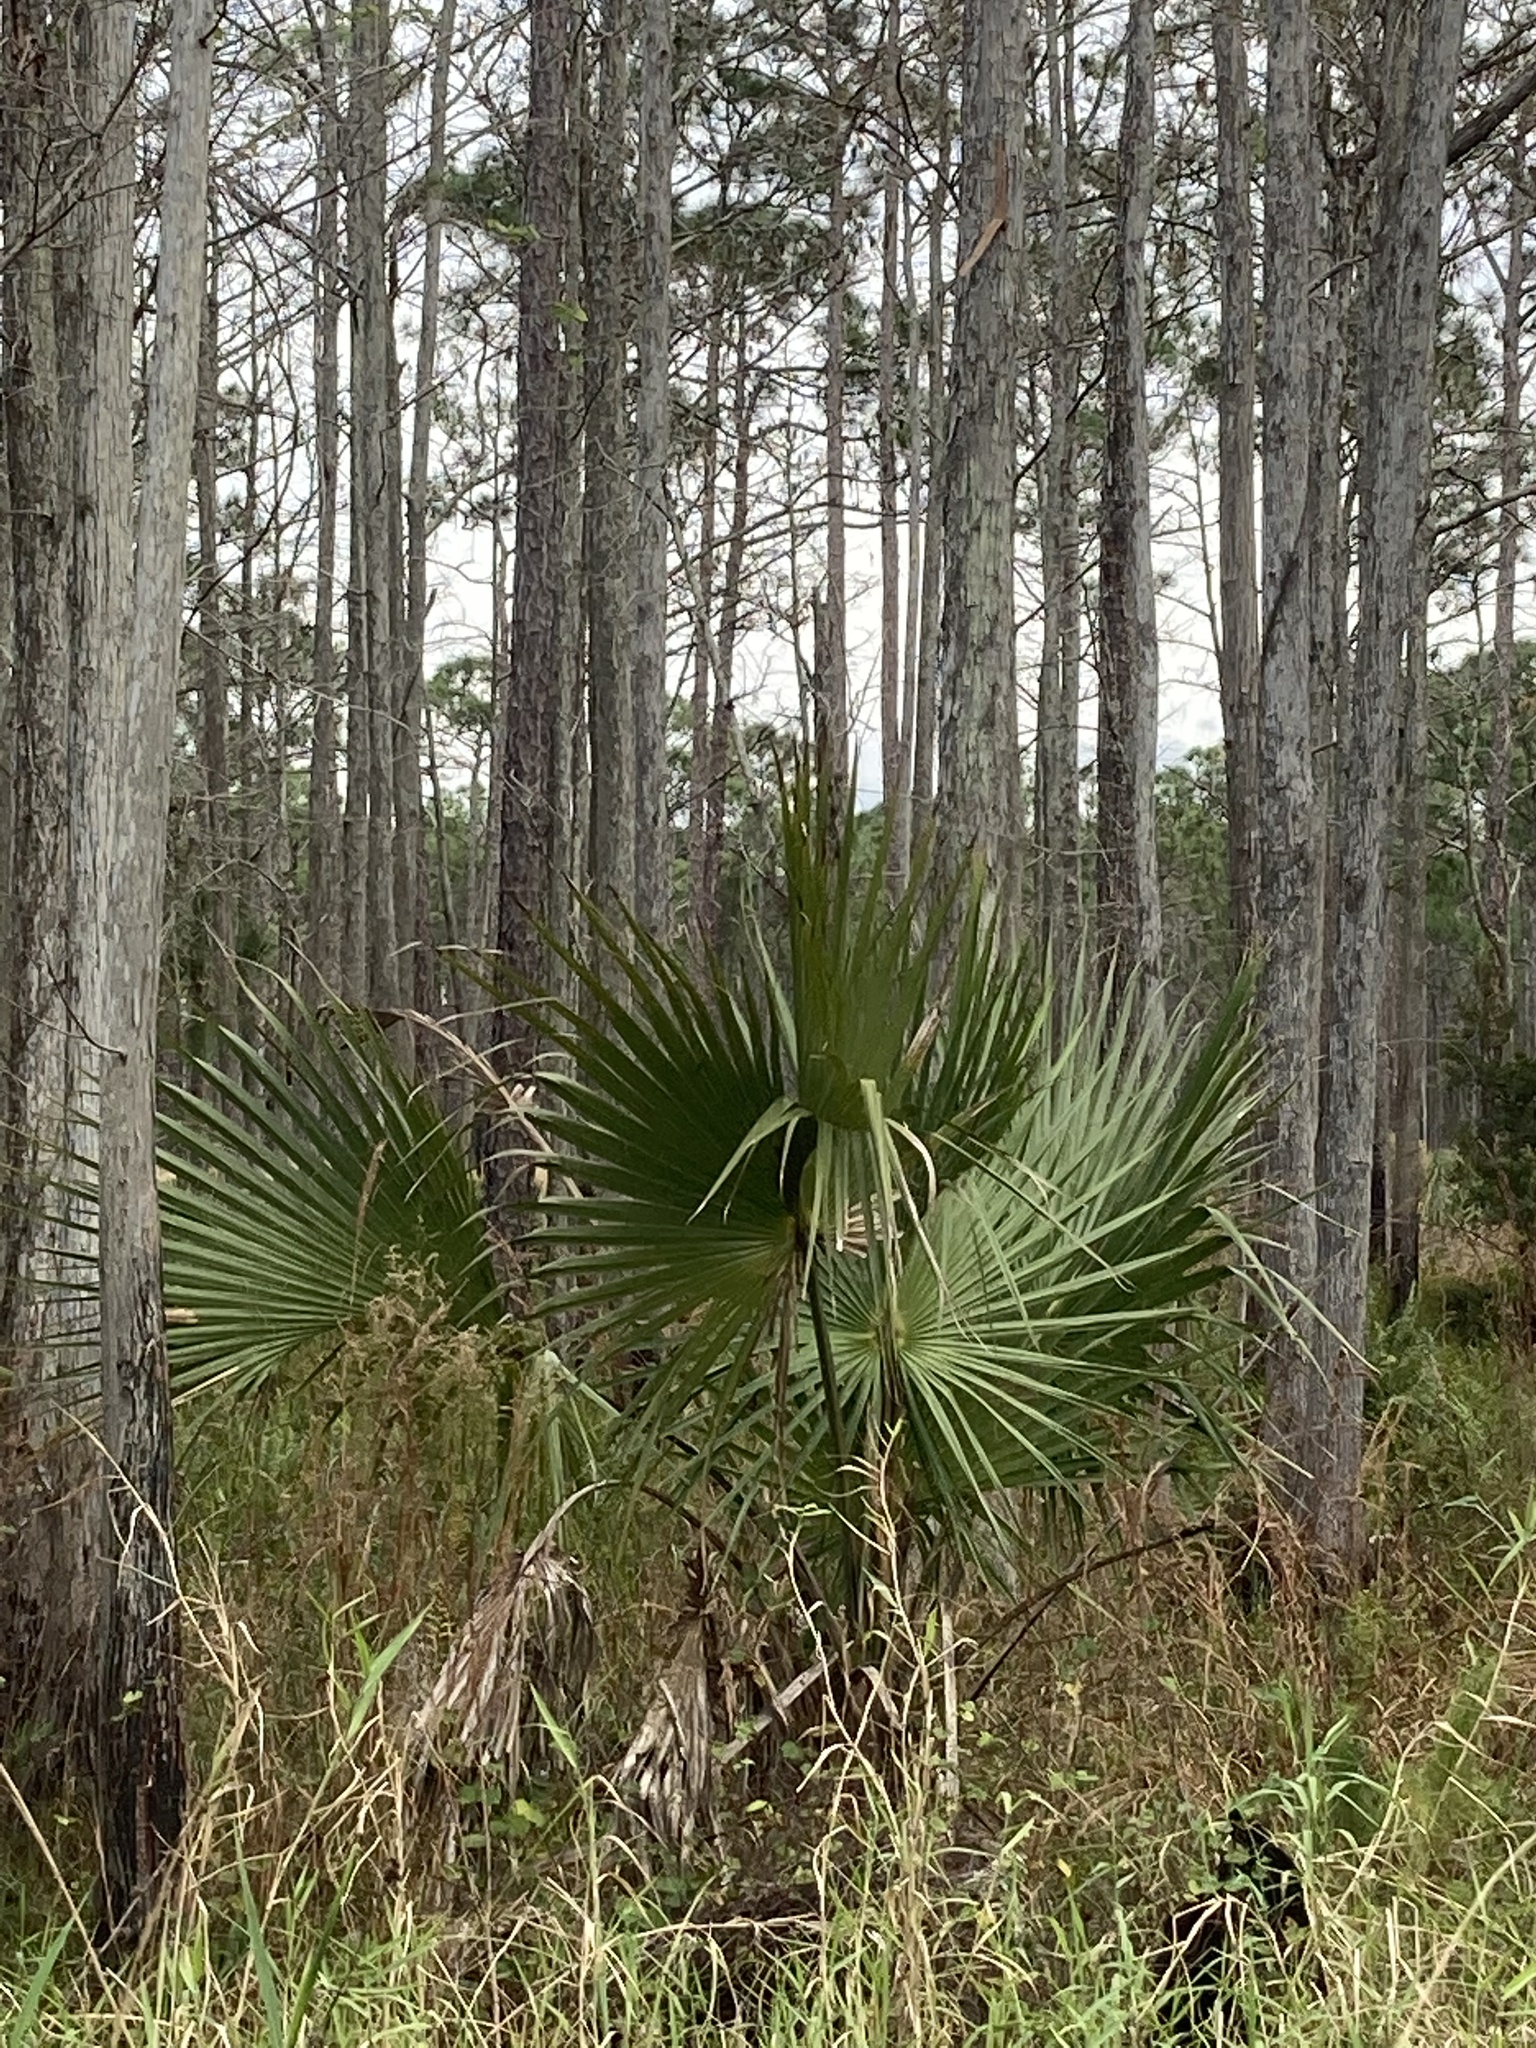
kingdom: Plantae
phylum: Tracheophyta
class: Liliopsida
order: Arecales
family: Arecaceae
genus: Sabal
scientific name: Sabal palmetto
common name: Blue palmetto
